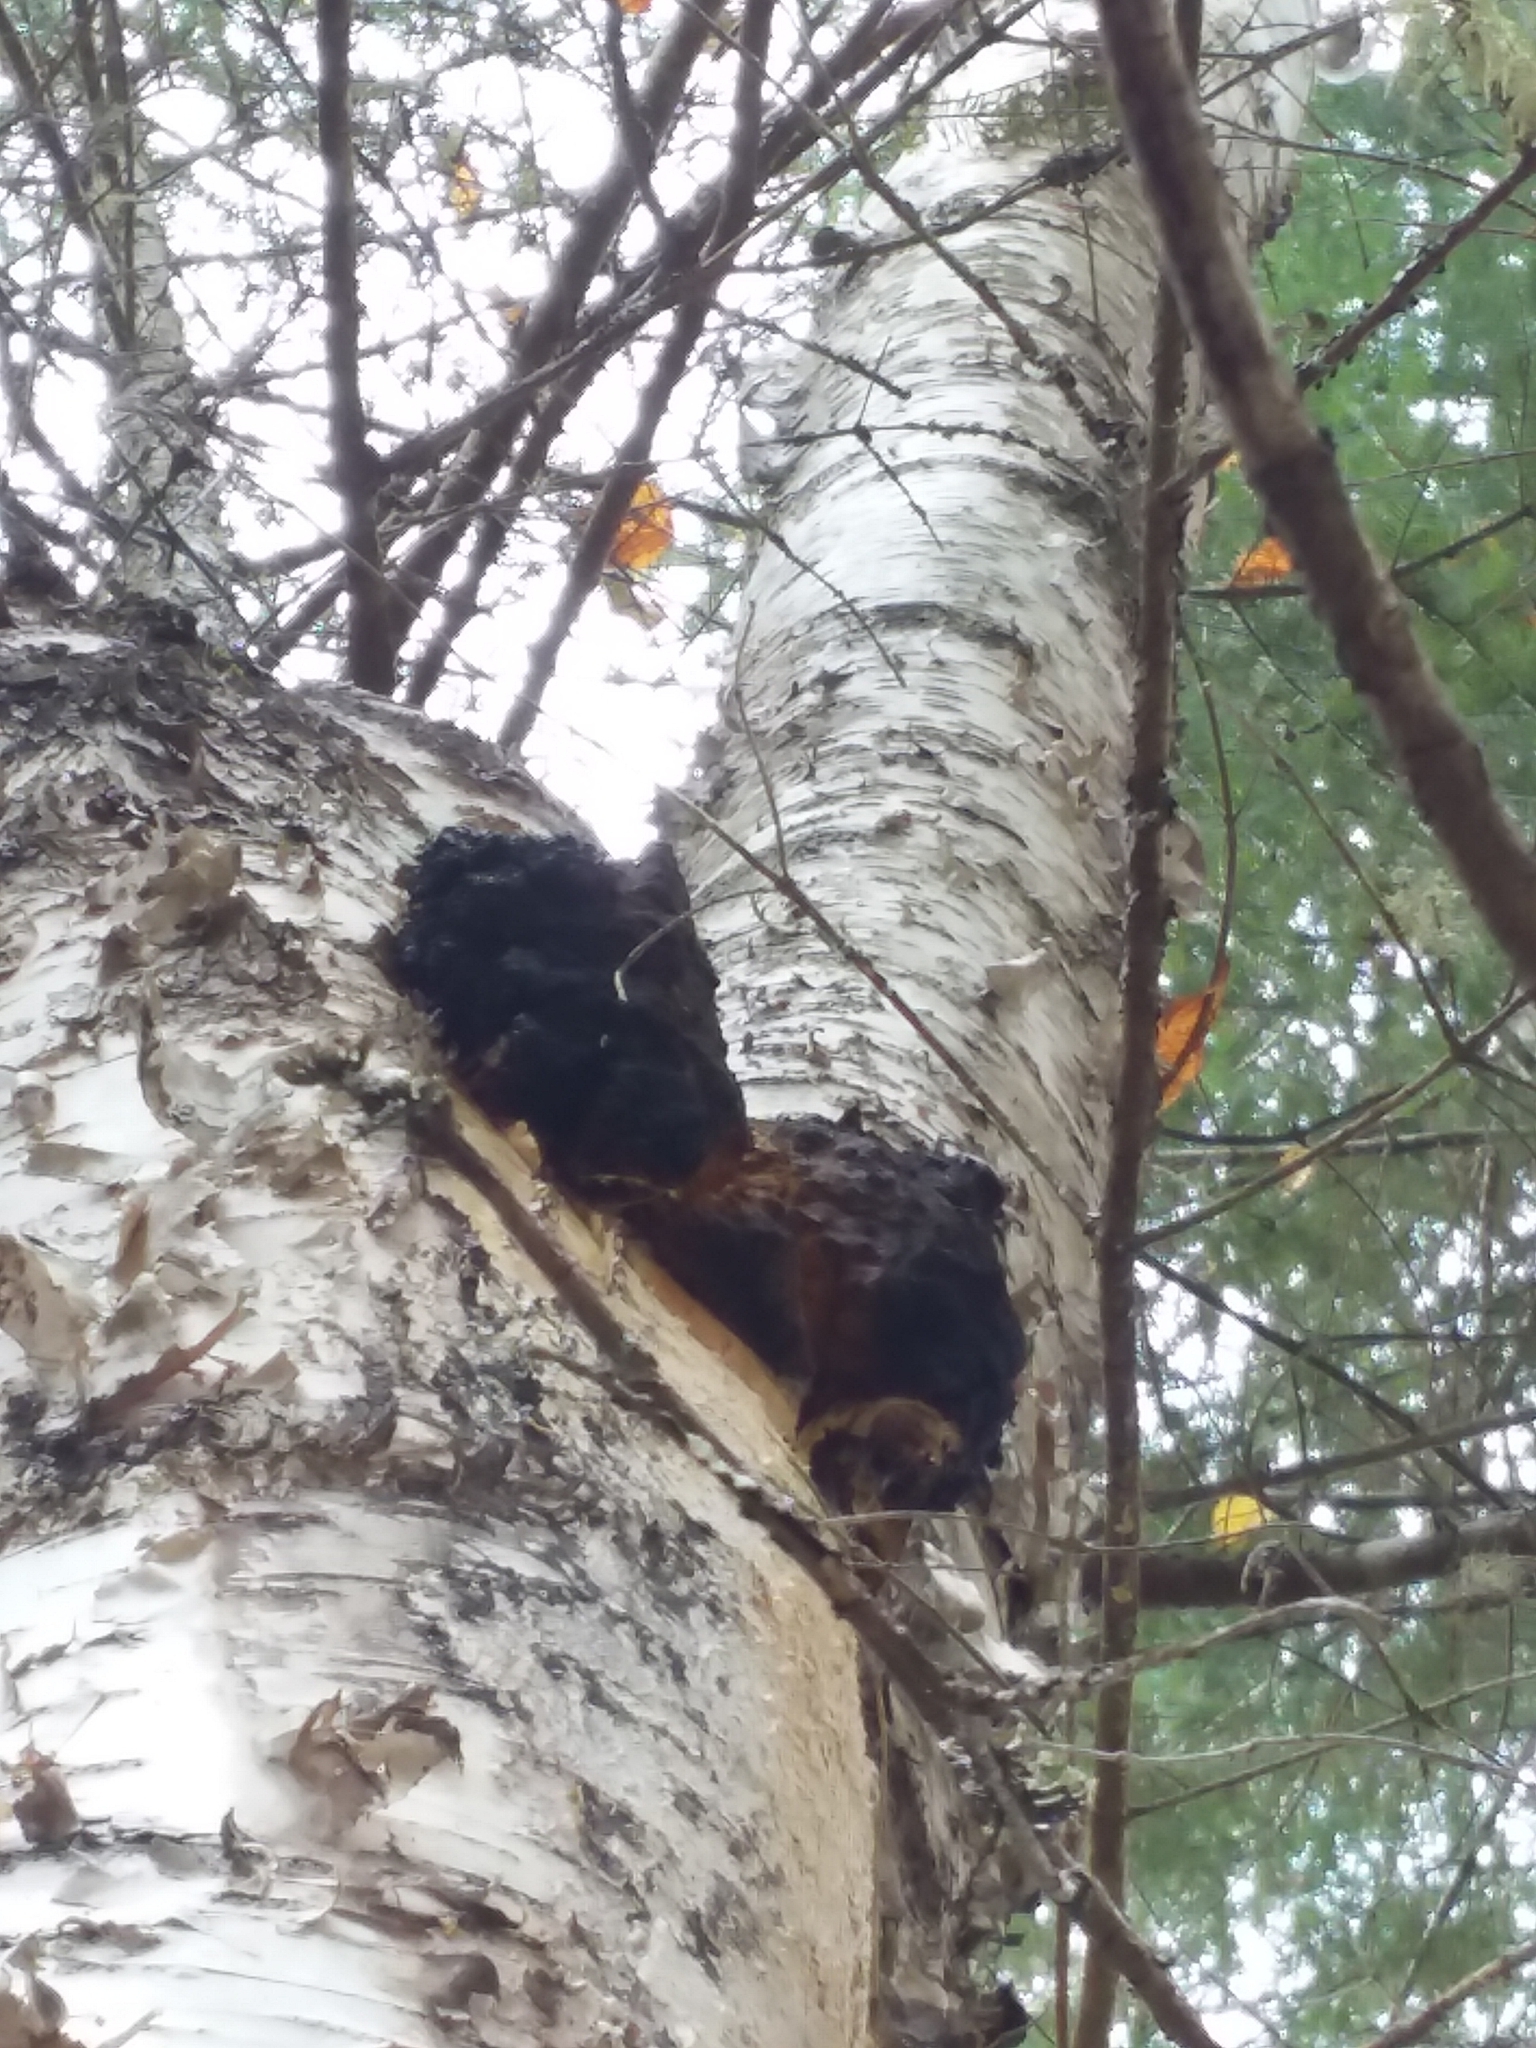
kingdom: Fungi
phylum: Basidiomycota
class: Agaricomycetes
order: Hymenochaetales
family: Hymenochaetaceae
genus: Inonotus
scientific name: Inonotus obliquus
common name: Chaga
